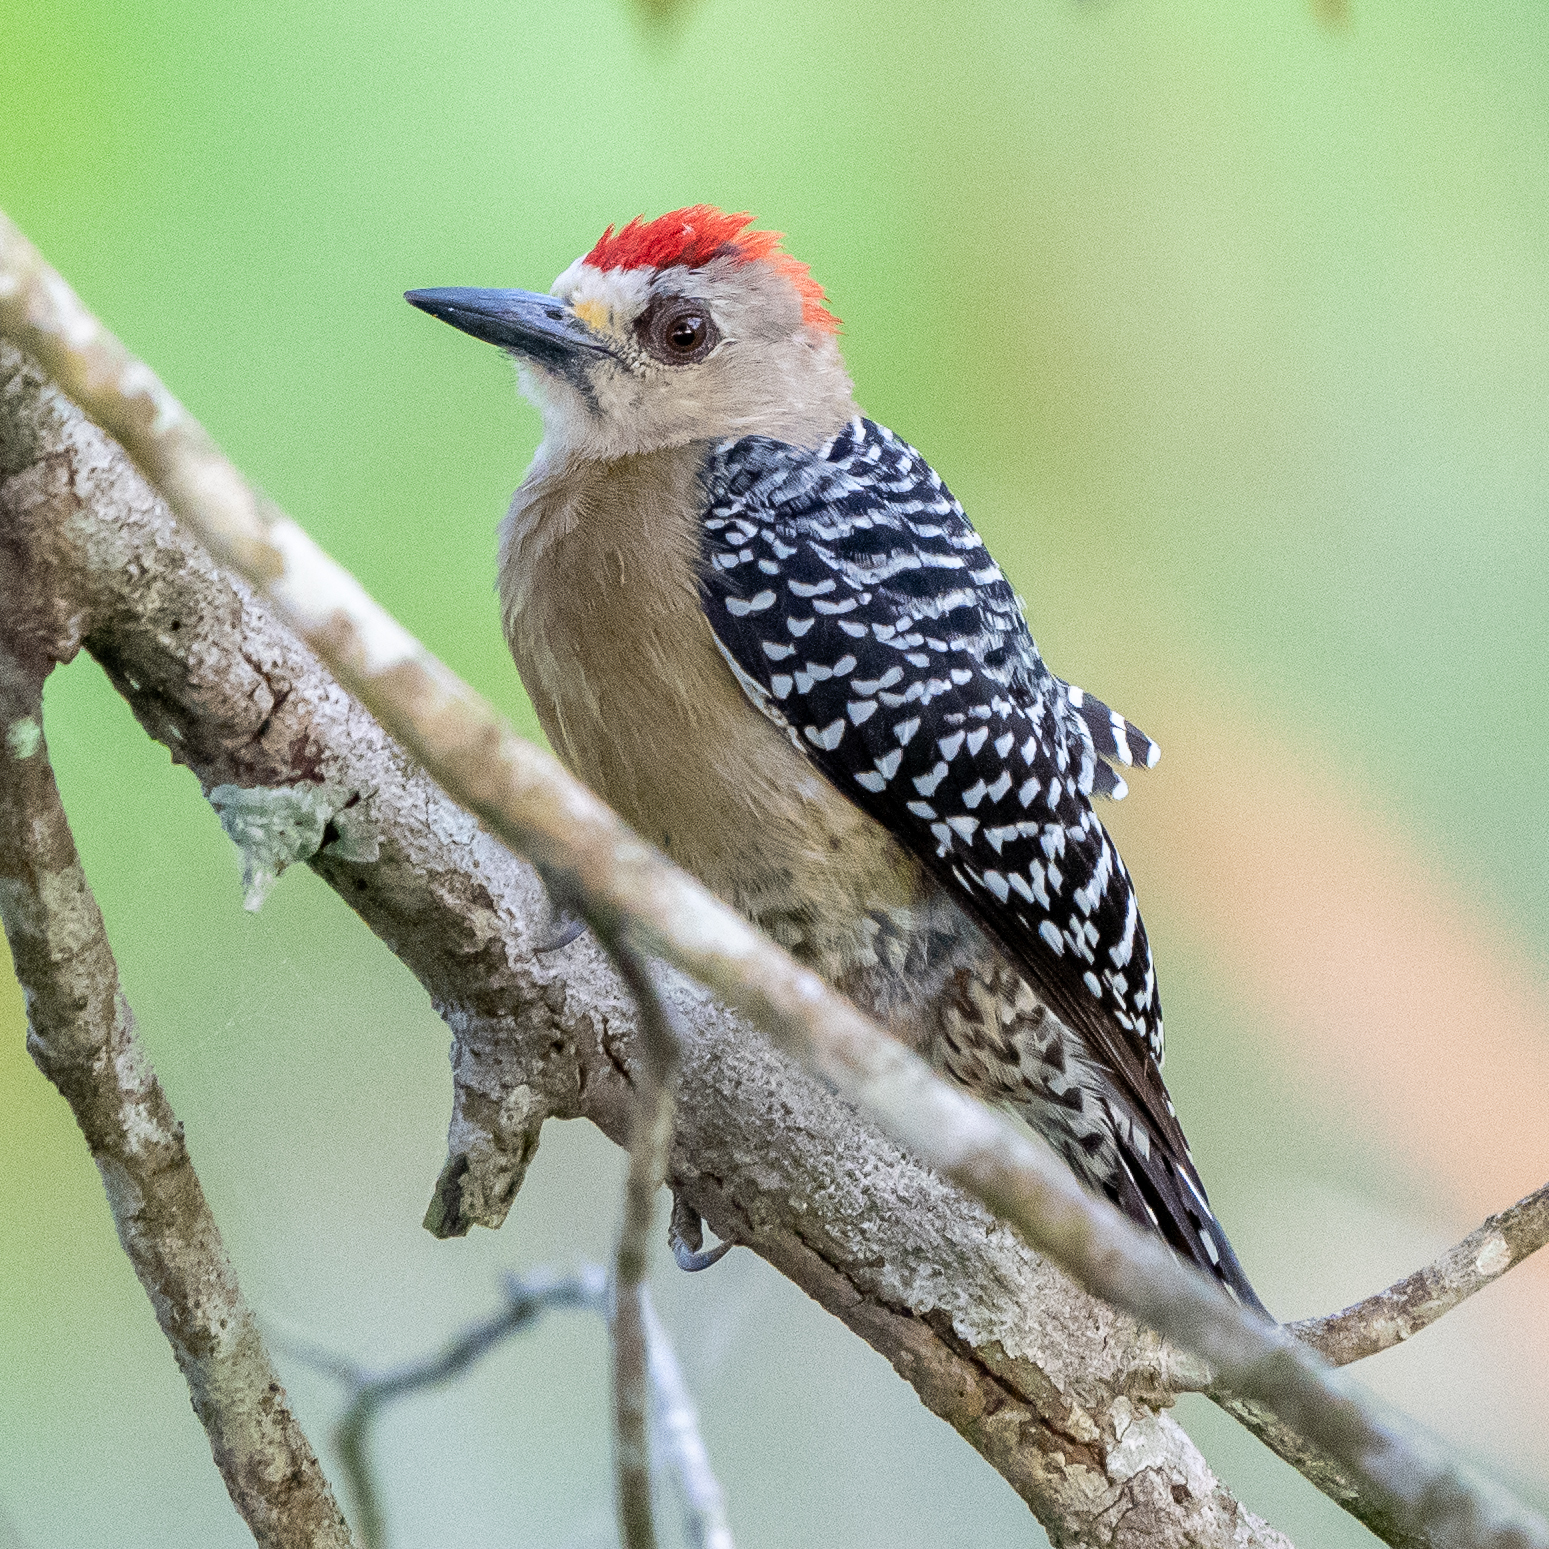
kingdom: Animalia
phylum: Chordata
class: Aves
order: Piciformes
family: Picidae
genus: Melanerpes
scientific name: Melanerpes rubricapillus
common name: Red-crowned woodpecker
